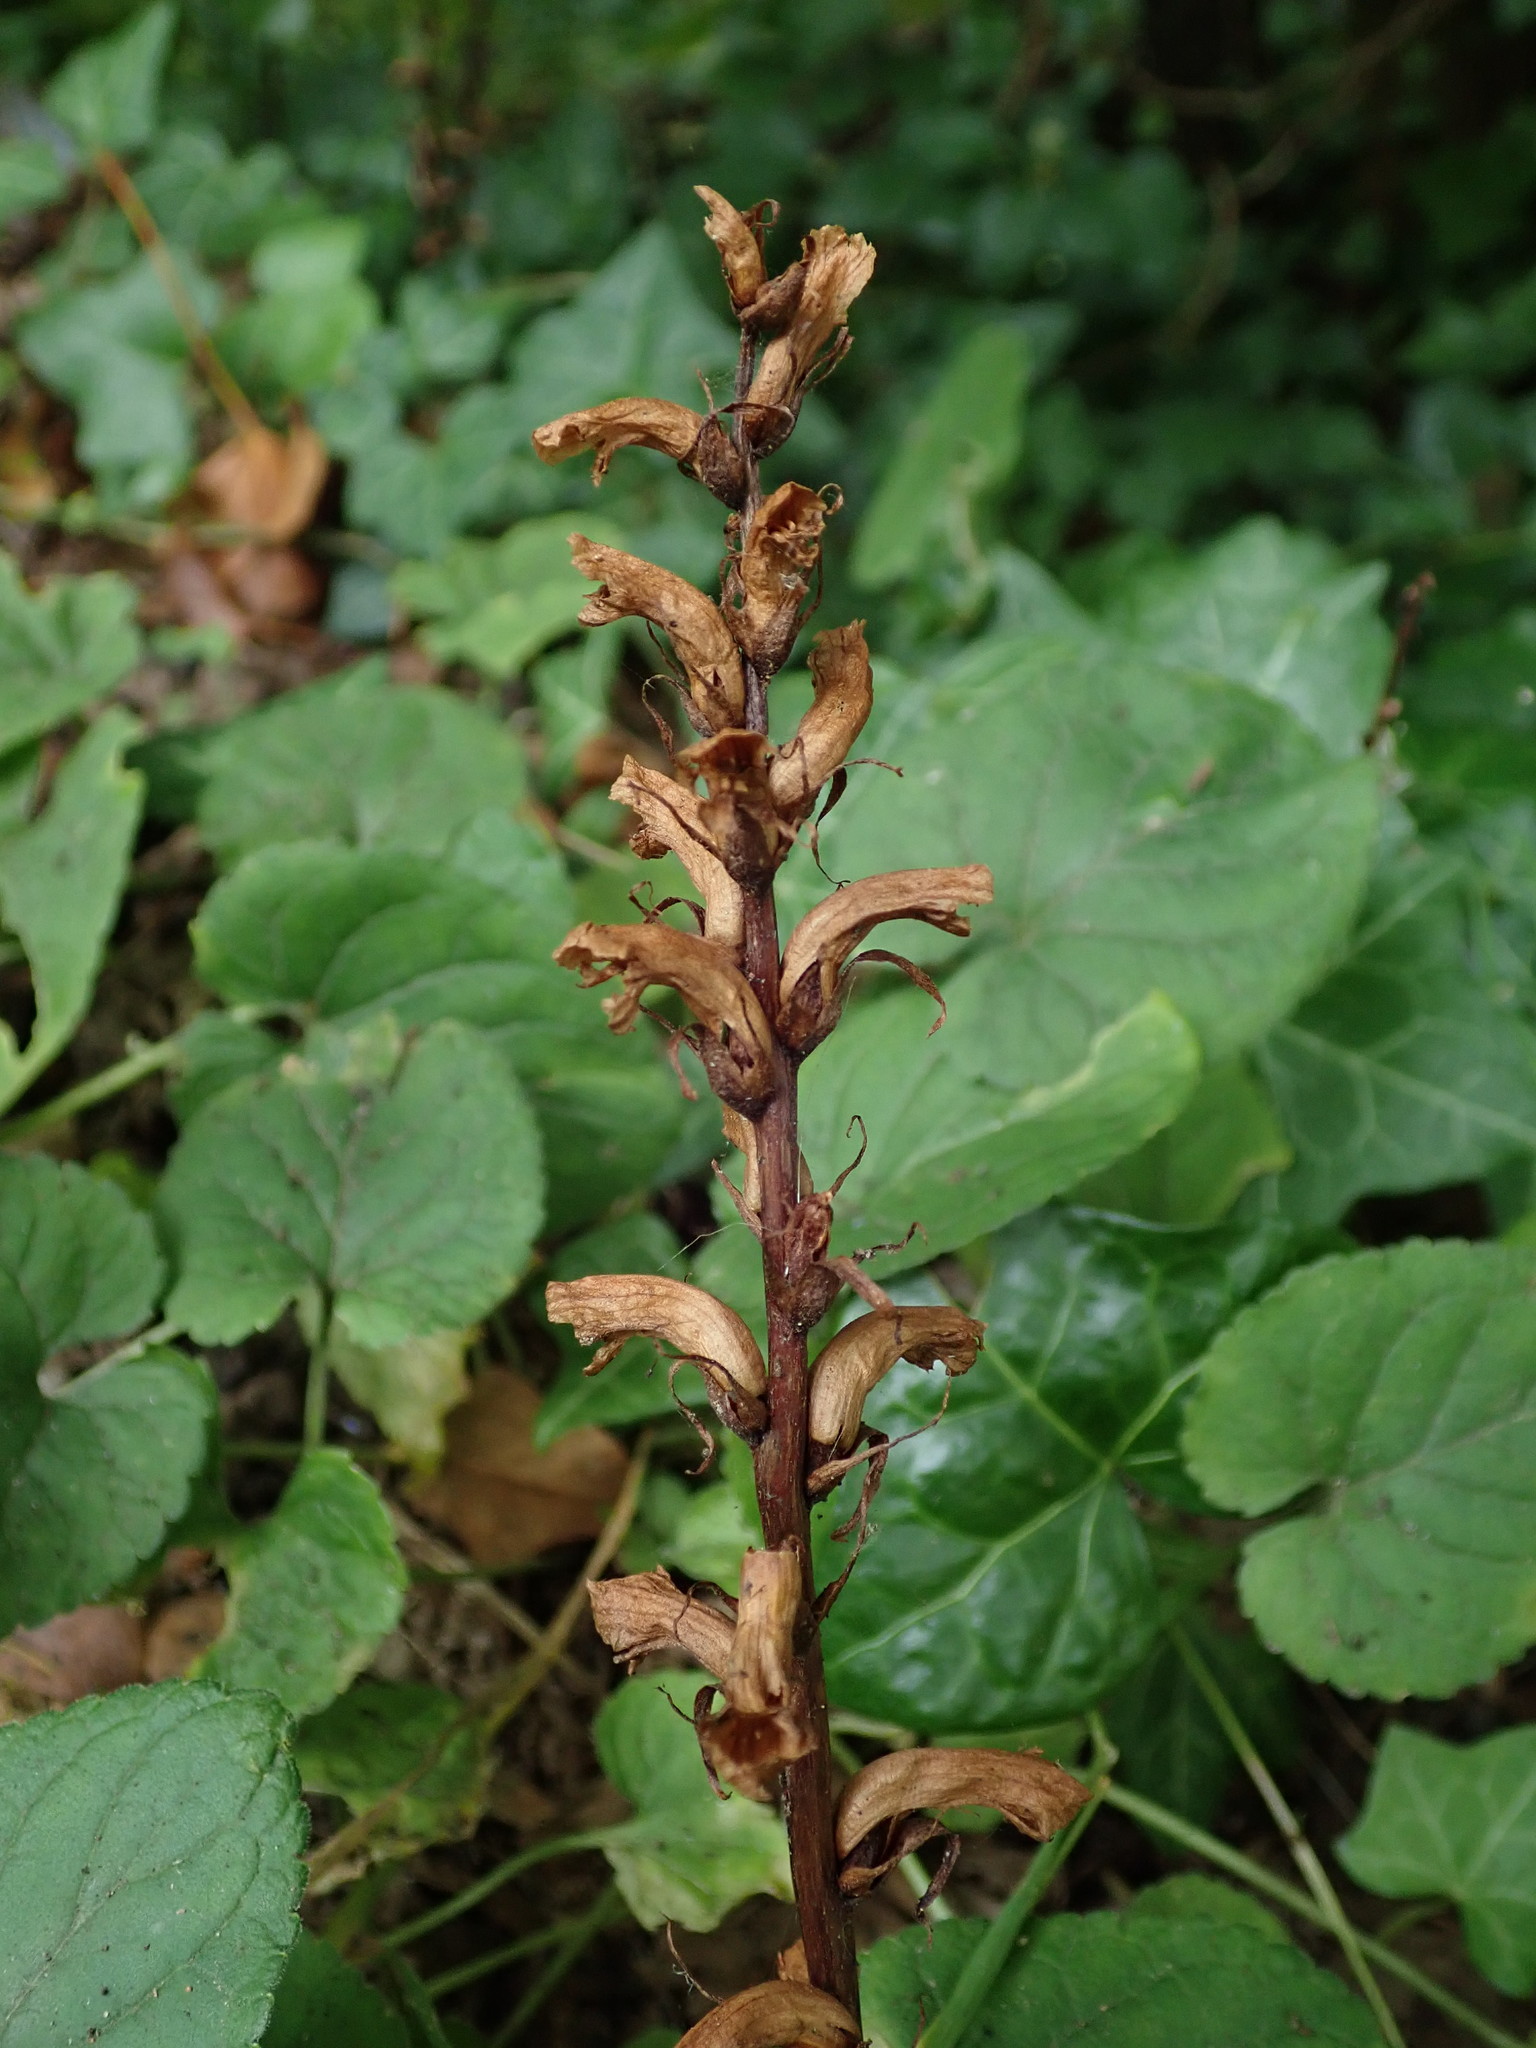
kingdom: Plantae
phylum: Tracheophyta
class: Magnoliopsida
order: Lamiales
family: Orobanchaceae
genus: Orobanche
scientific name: Orobanche hederae
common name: Ivy broomrape
